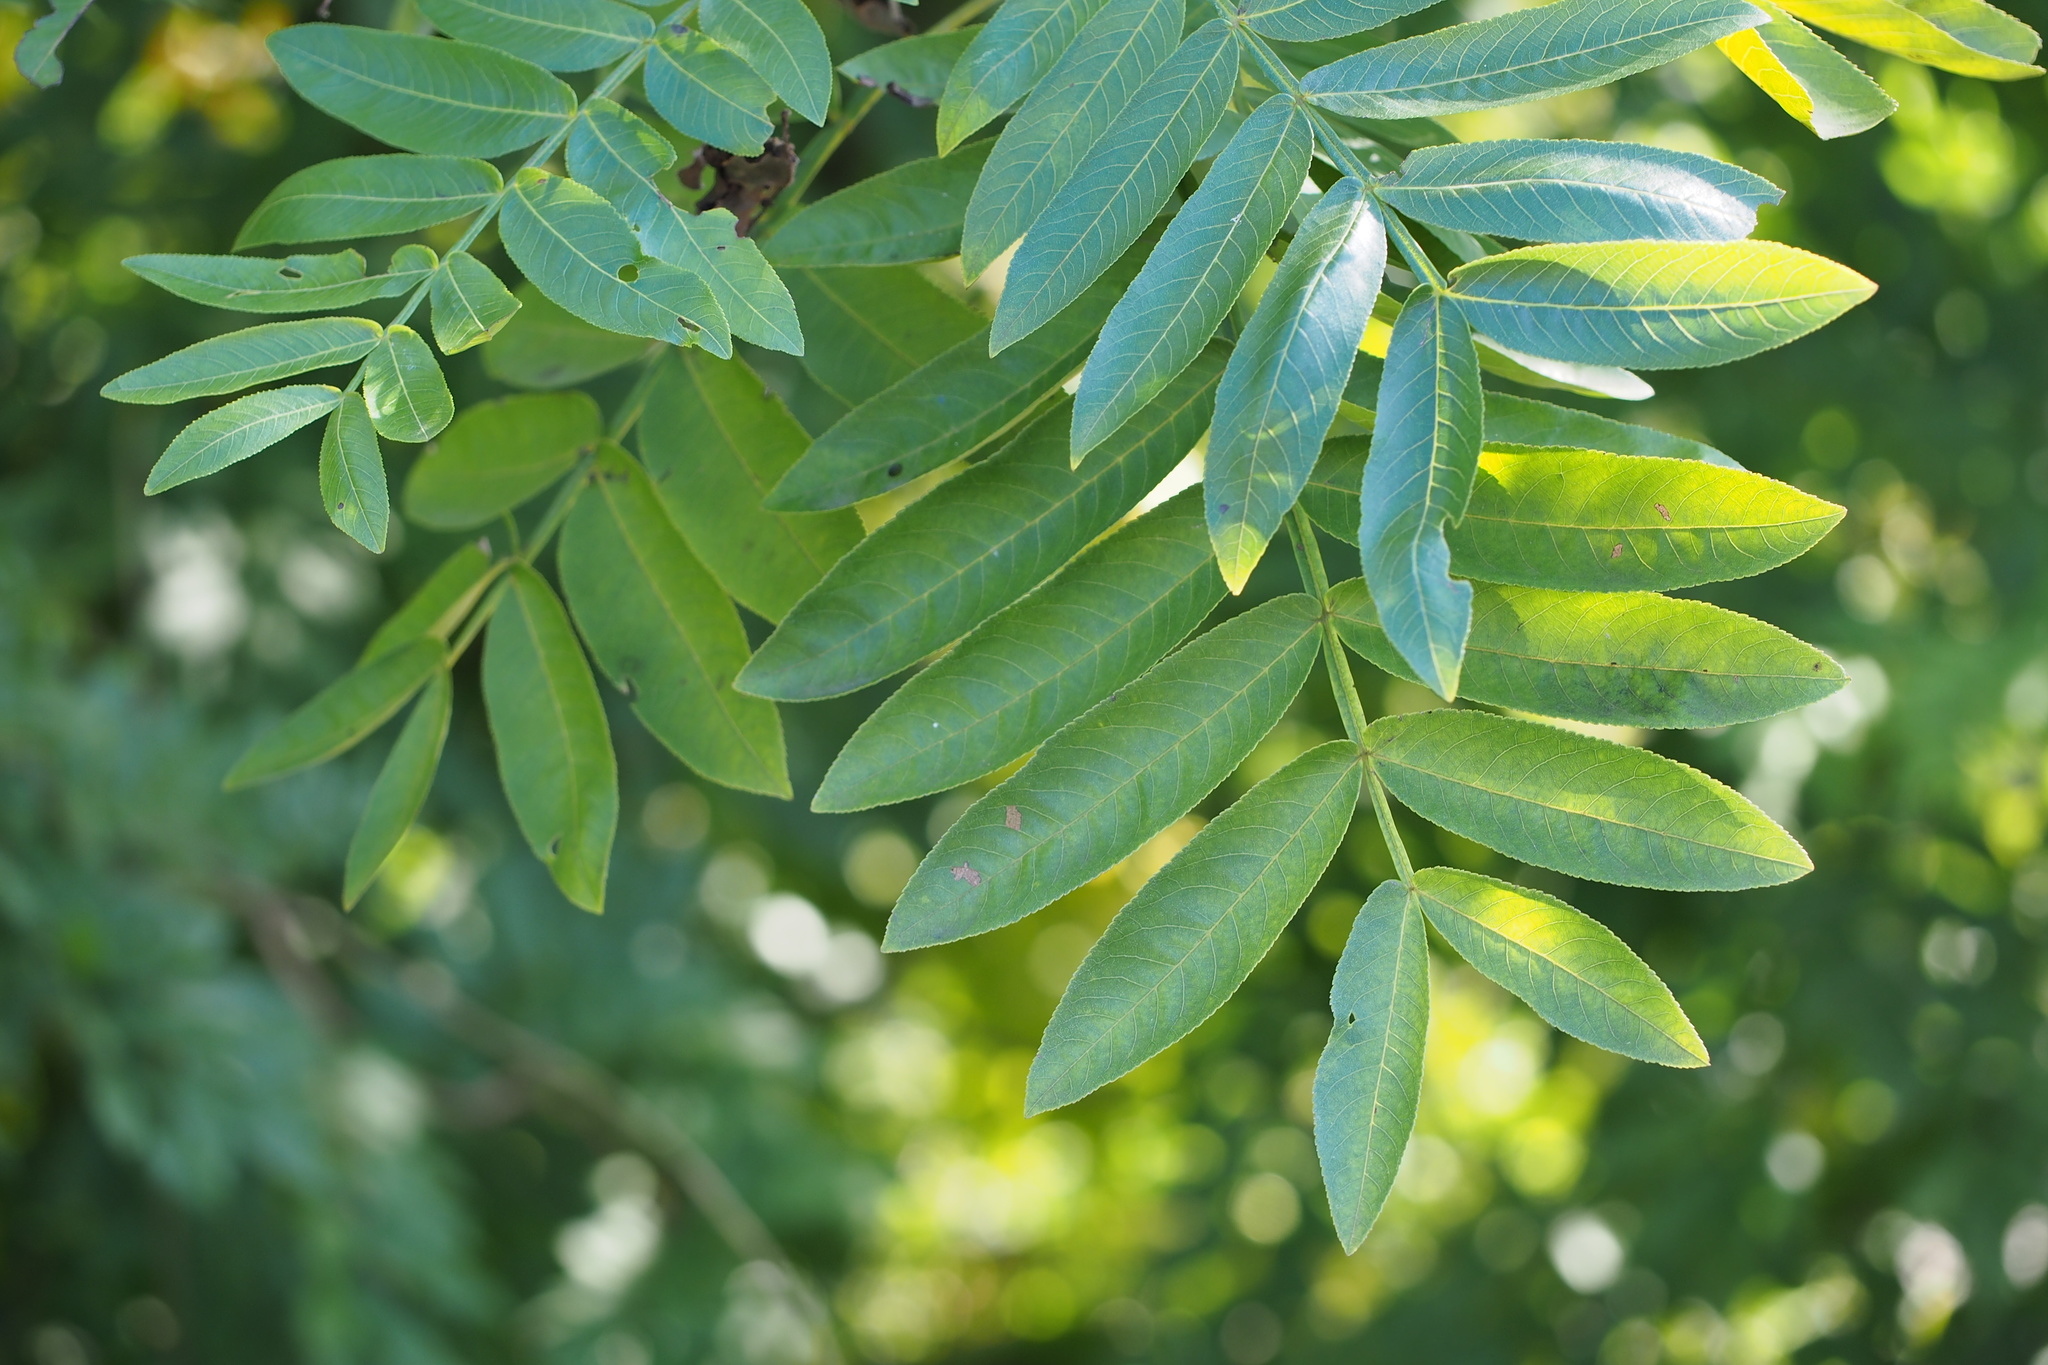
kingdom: Plantae
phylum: Tracheophyta
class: Magnoliopsida
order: Fagales
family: Juglandaceae
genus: Pterocarya
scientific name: Pterocarya stenoptera
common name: Chinese wingnut
